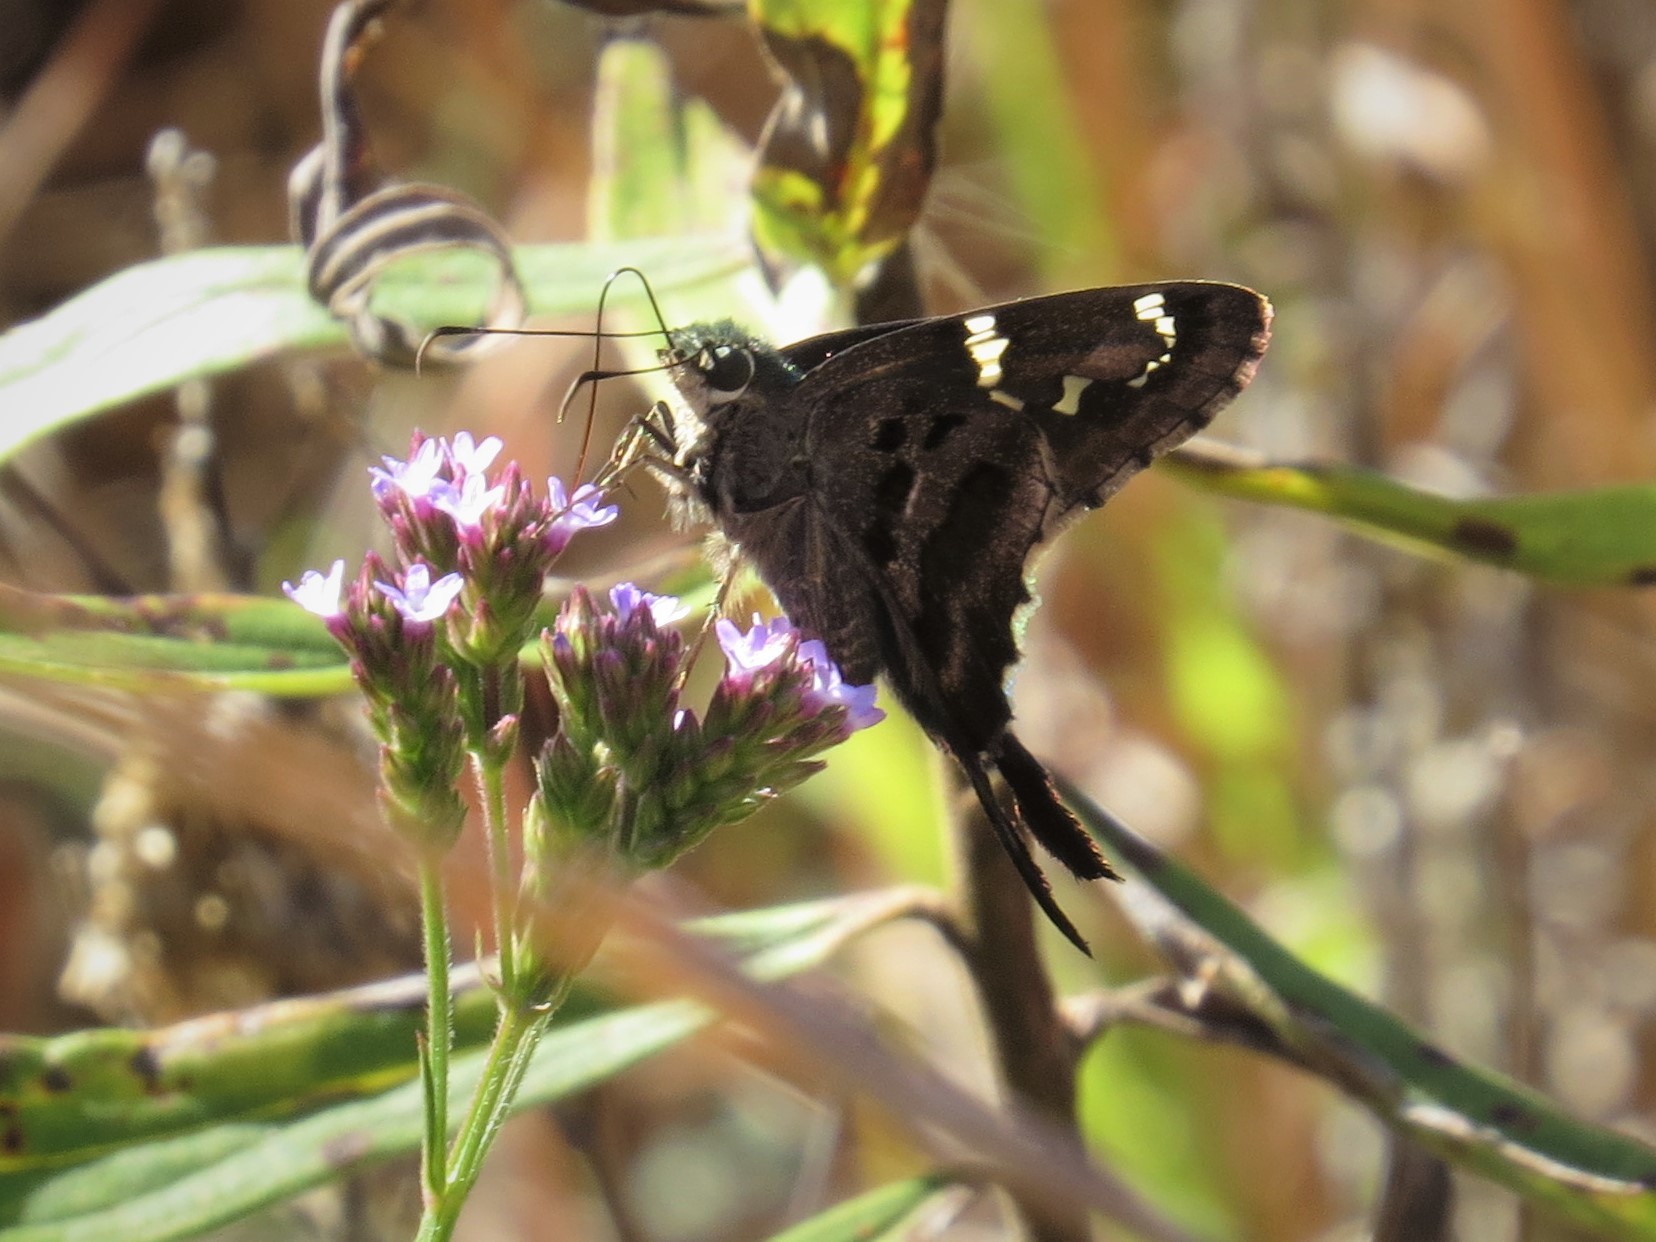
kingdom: Animalia
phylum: Arthropoda
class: Insecta
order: Lepidoptera
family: Hesperiidae
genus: Urbanus
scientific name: Urbanus proteus
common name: Long-tailed skipper
